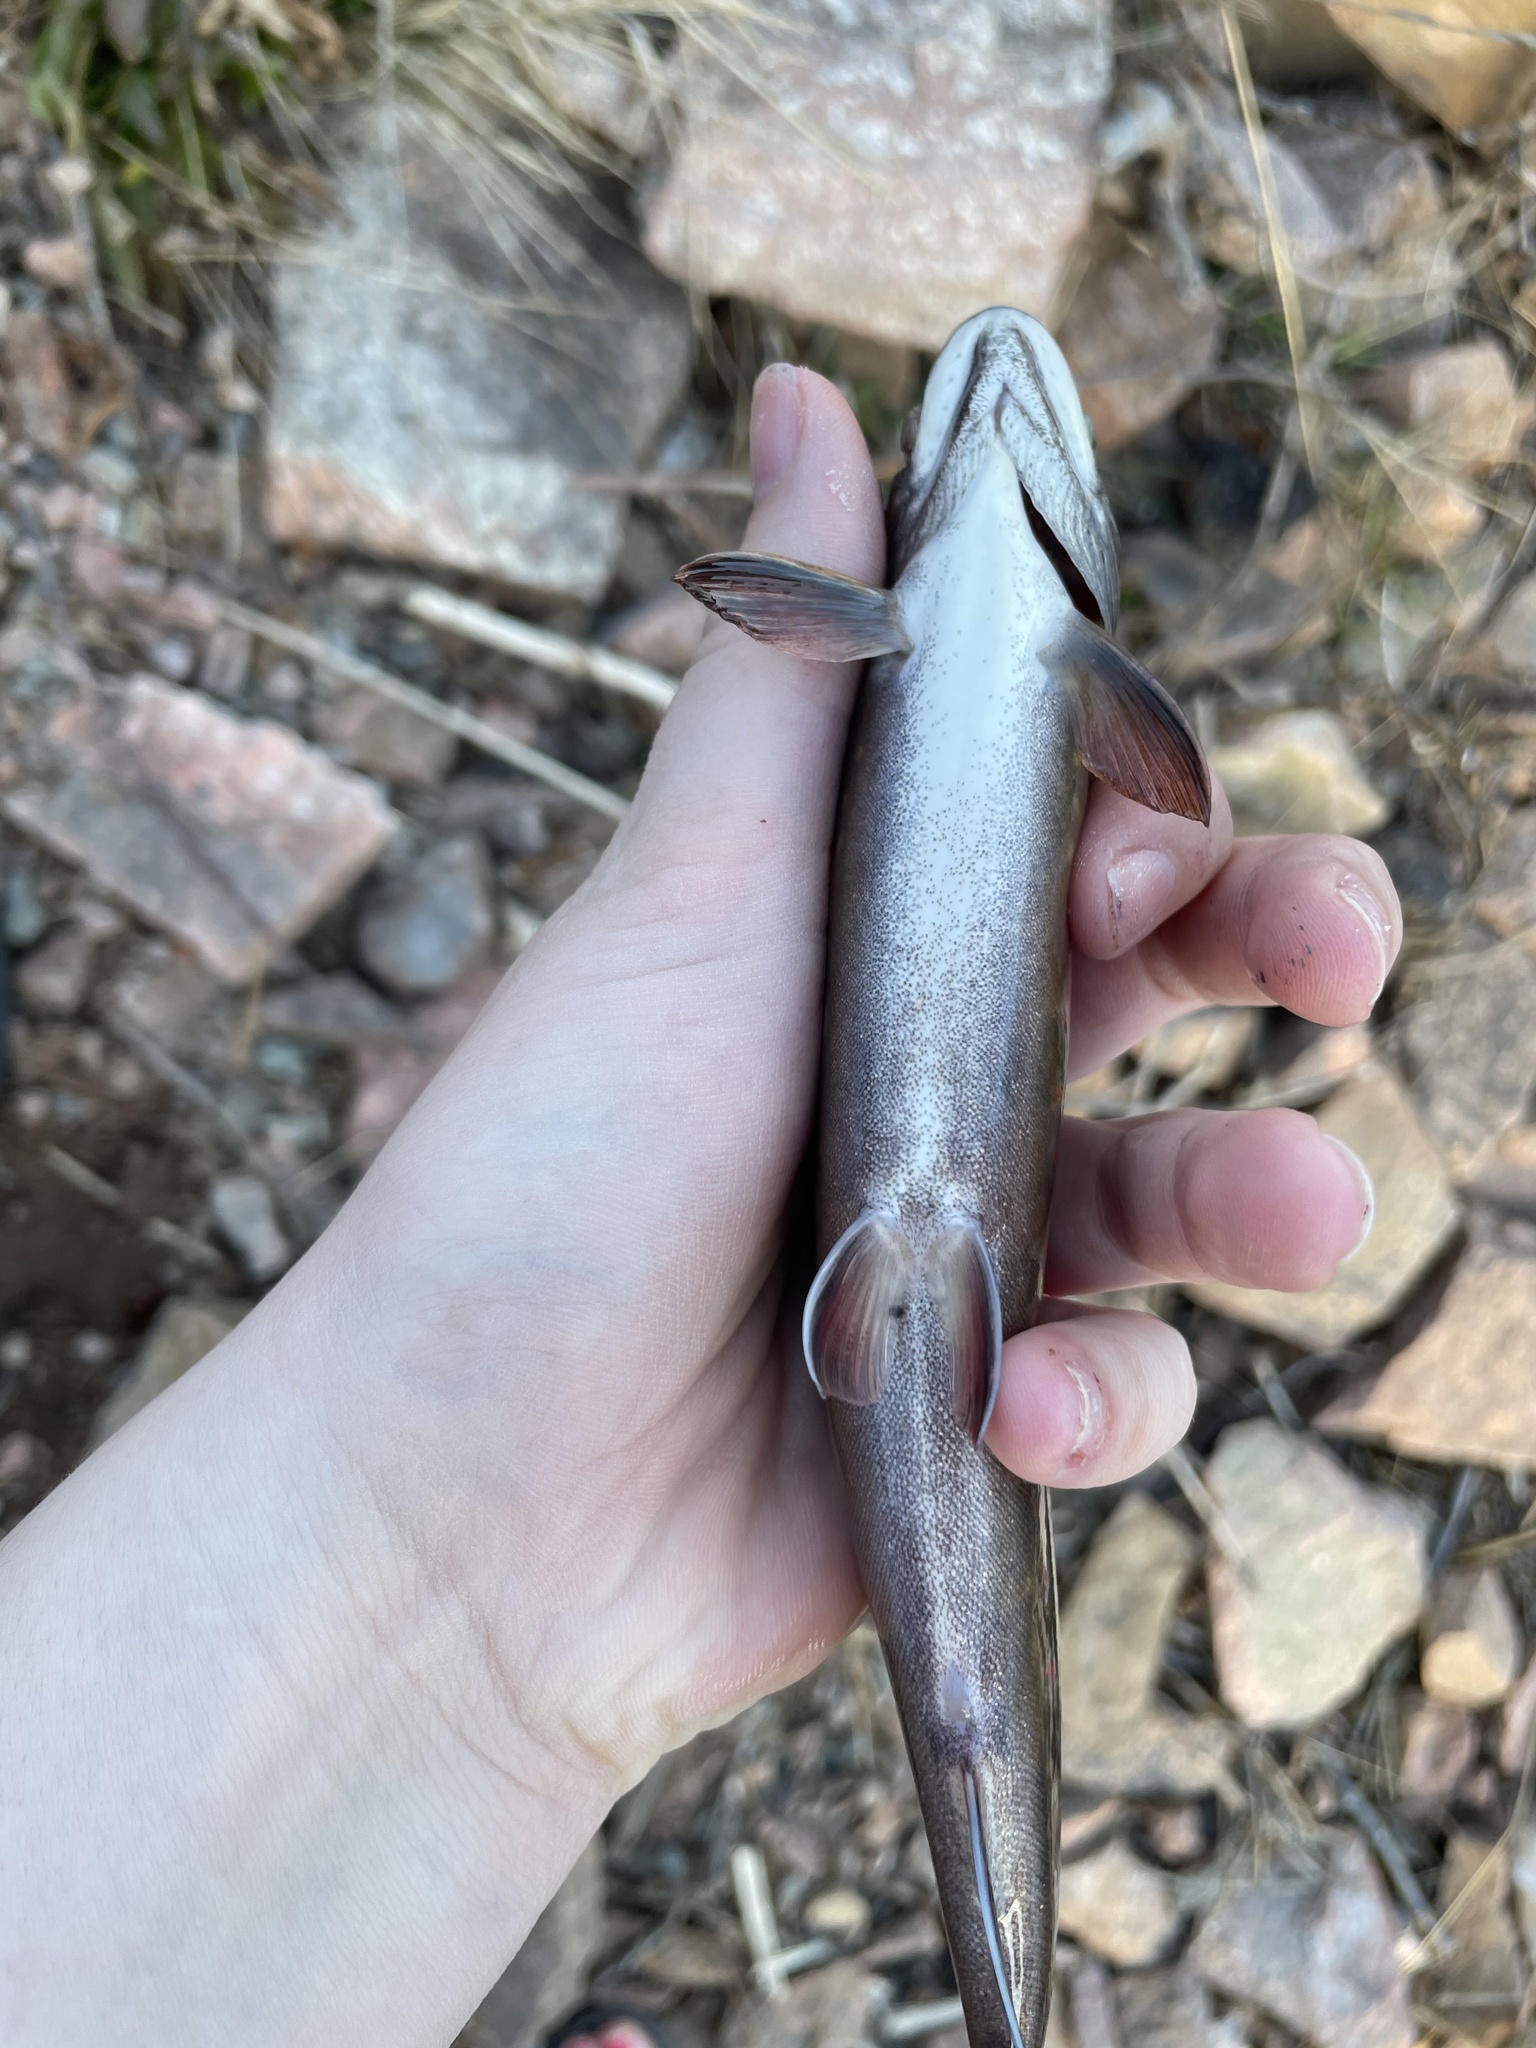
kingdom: Animalia
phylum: Chordata
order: Salmoniformes
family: Salmonidae
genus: Salvelinus
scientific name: Salvelinus fontinalis
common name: Brook trout
